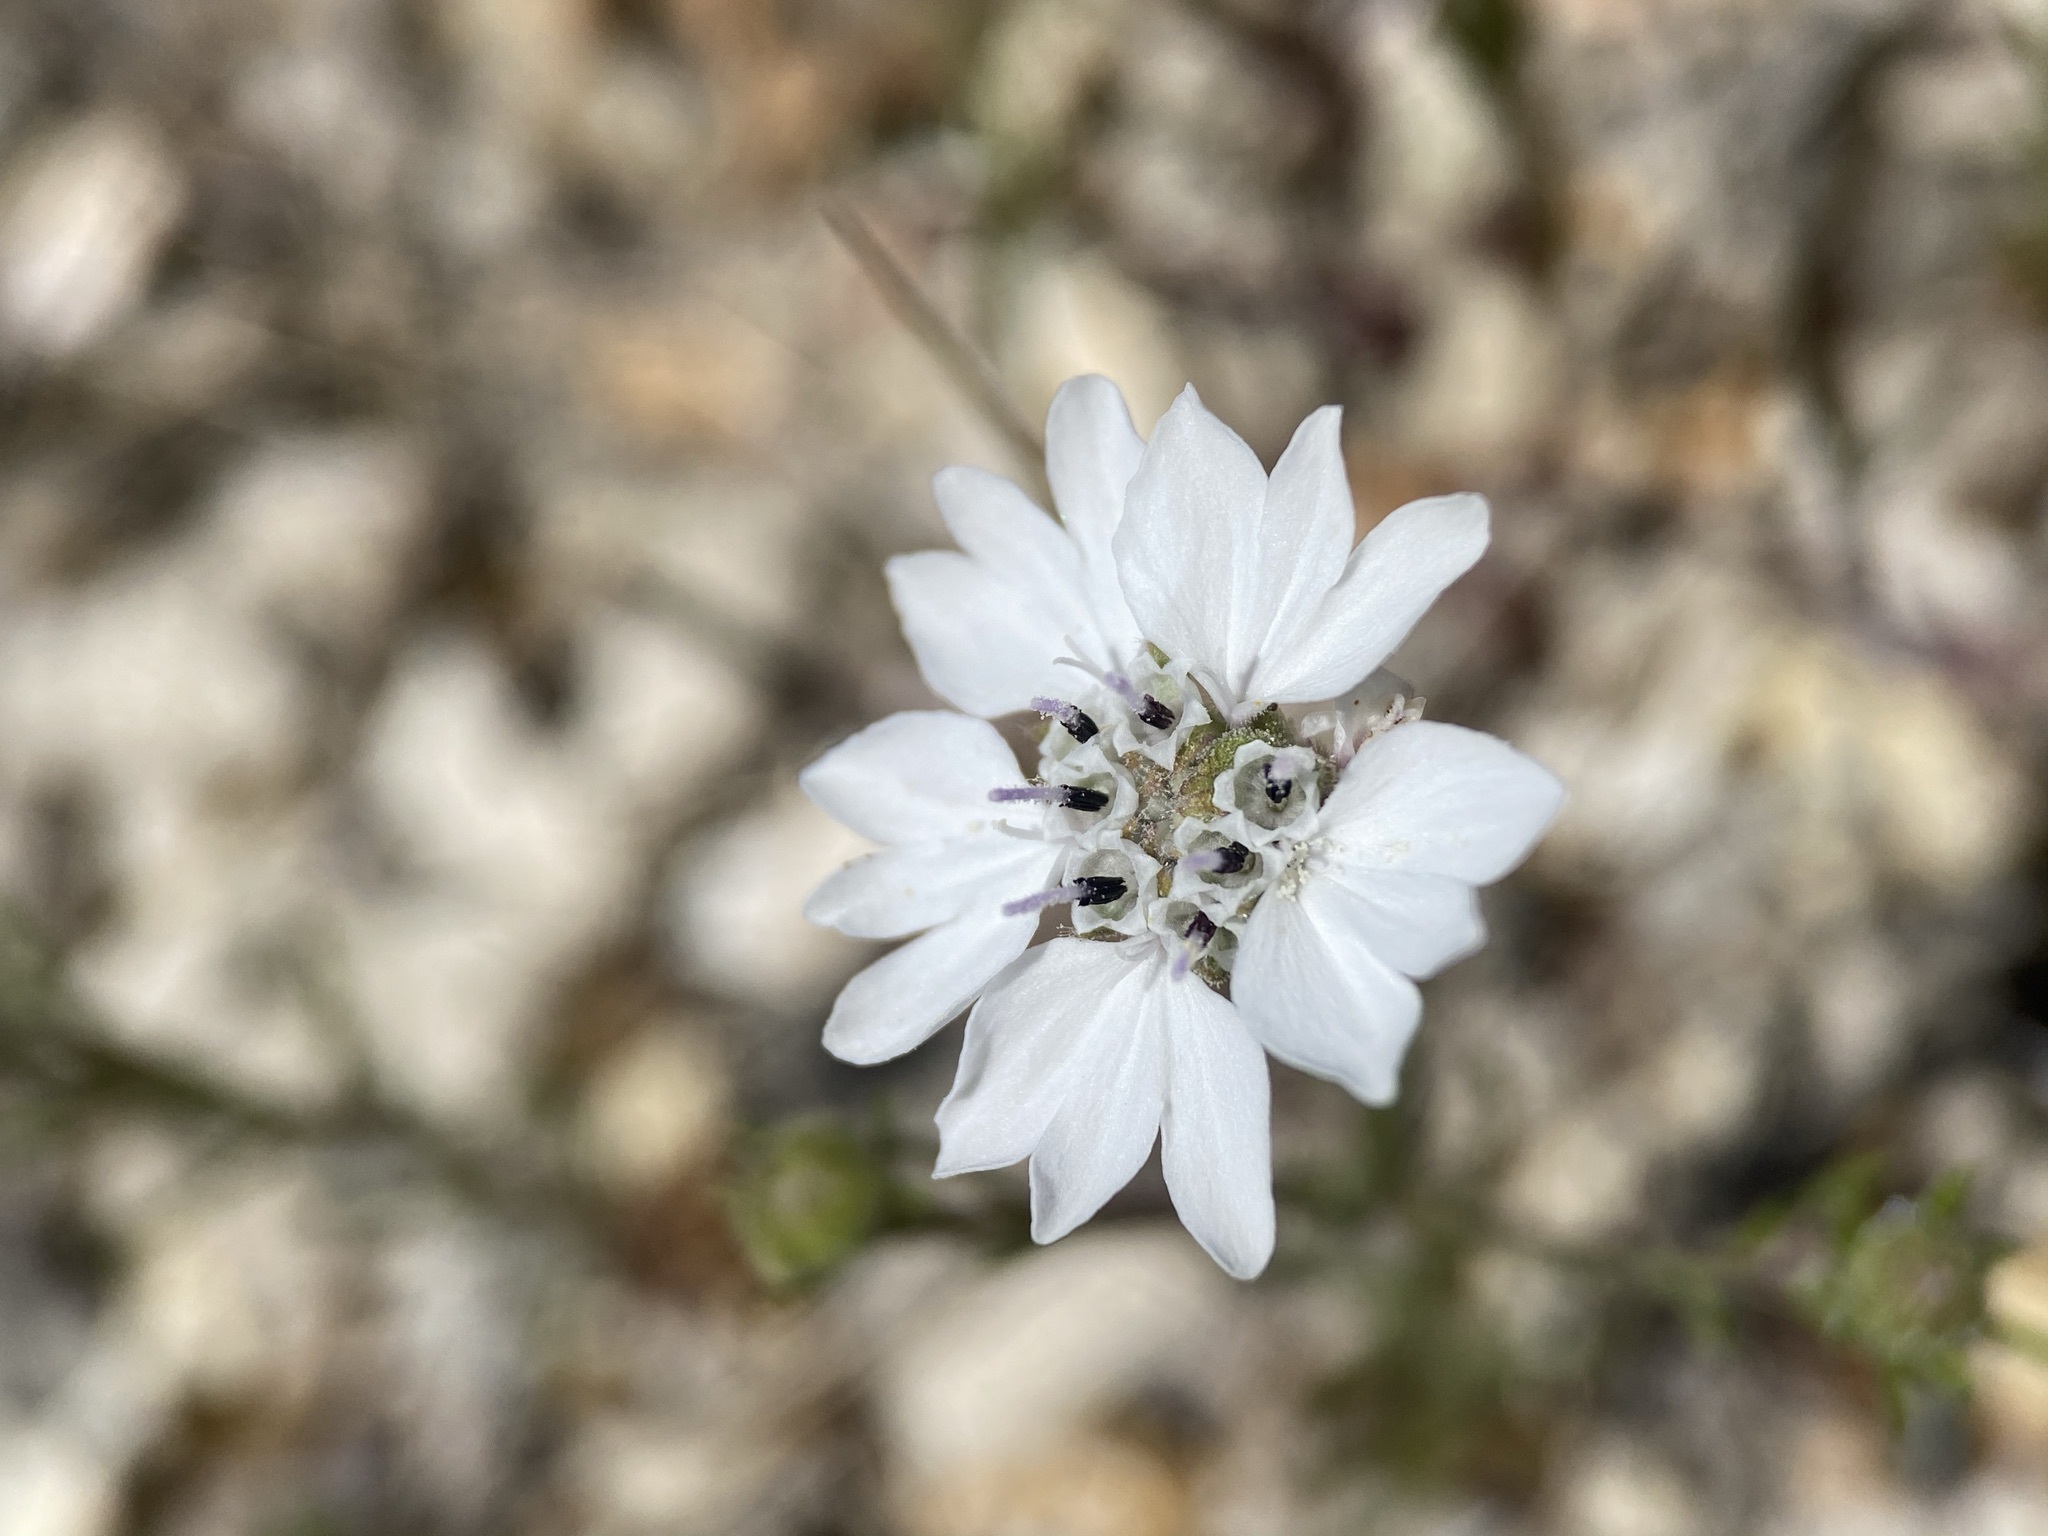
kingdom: Plantae
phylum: Tracheophyta
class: Magnoliopsida
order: Asterales
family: Asteraceae
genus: Blepharipappus
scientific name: Blepharipappus scaber
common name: Rough blepharipappus
